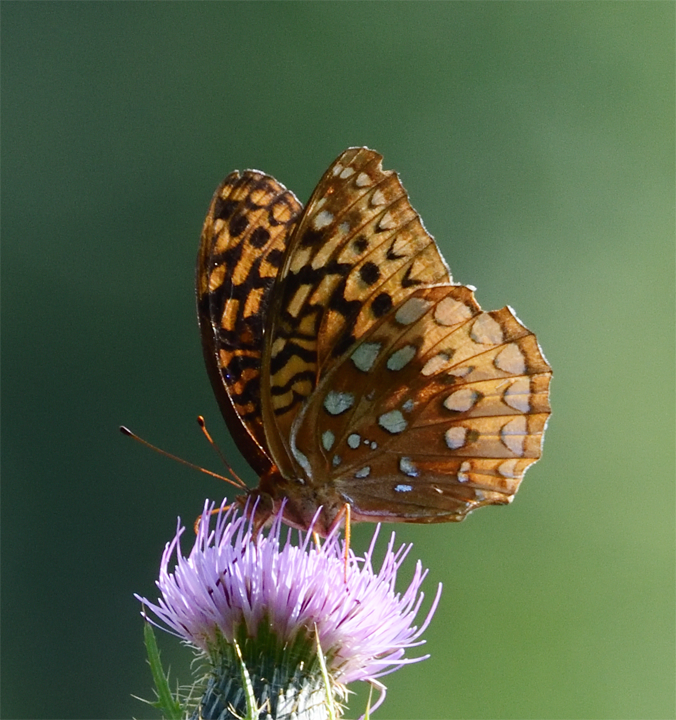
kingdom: Animalia
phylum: Arthropoda
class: Insecta
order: Lepidoptera
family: Nymphalidae
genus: Speyeria
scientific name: Speyeria cybele
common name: Great spangled fritillary
